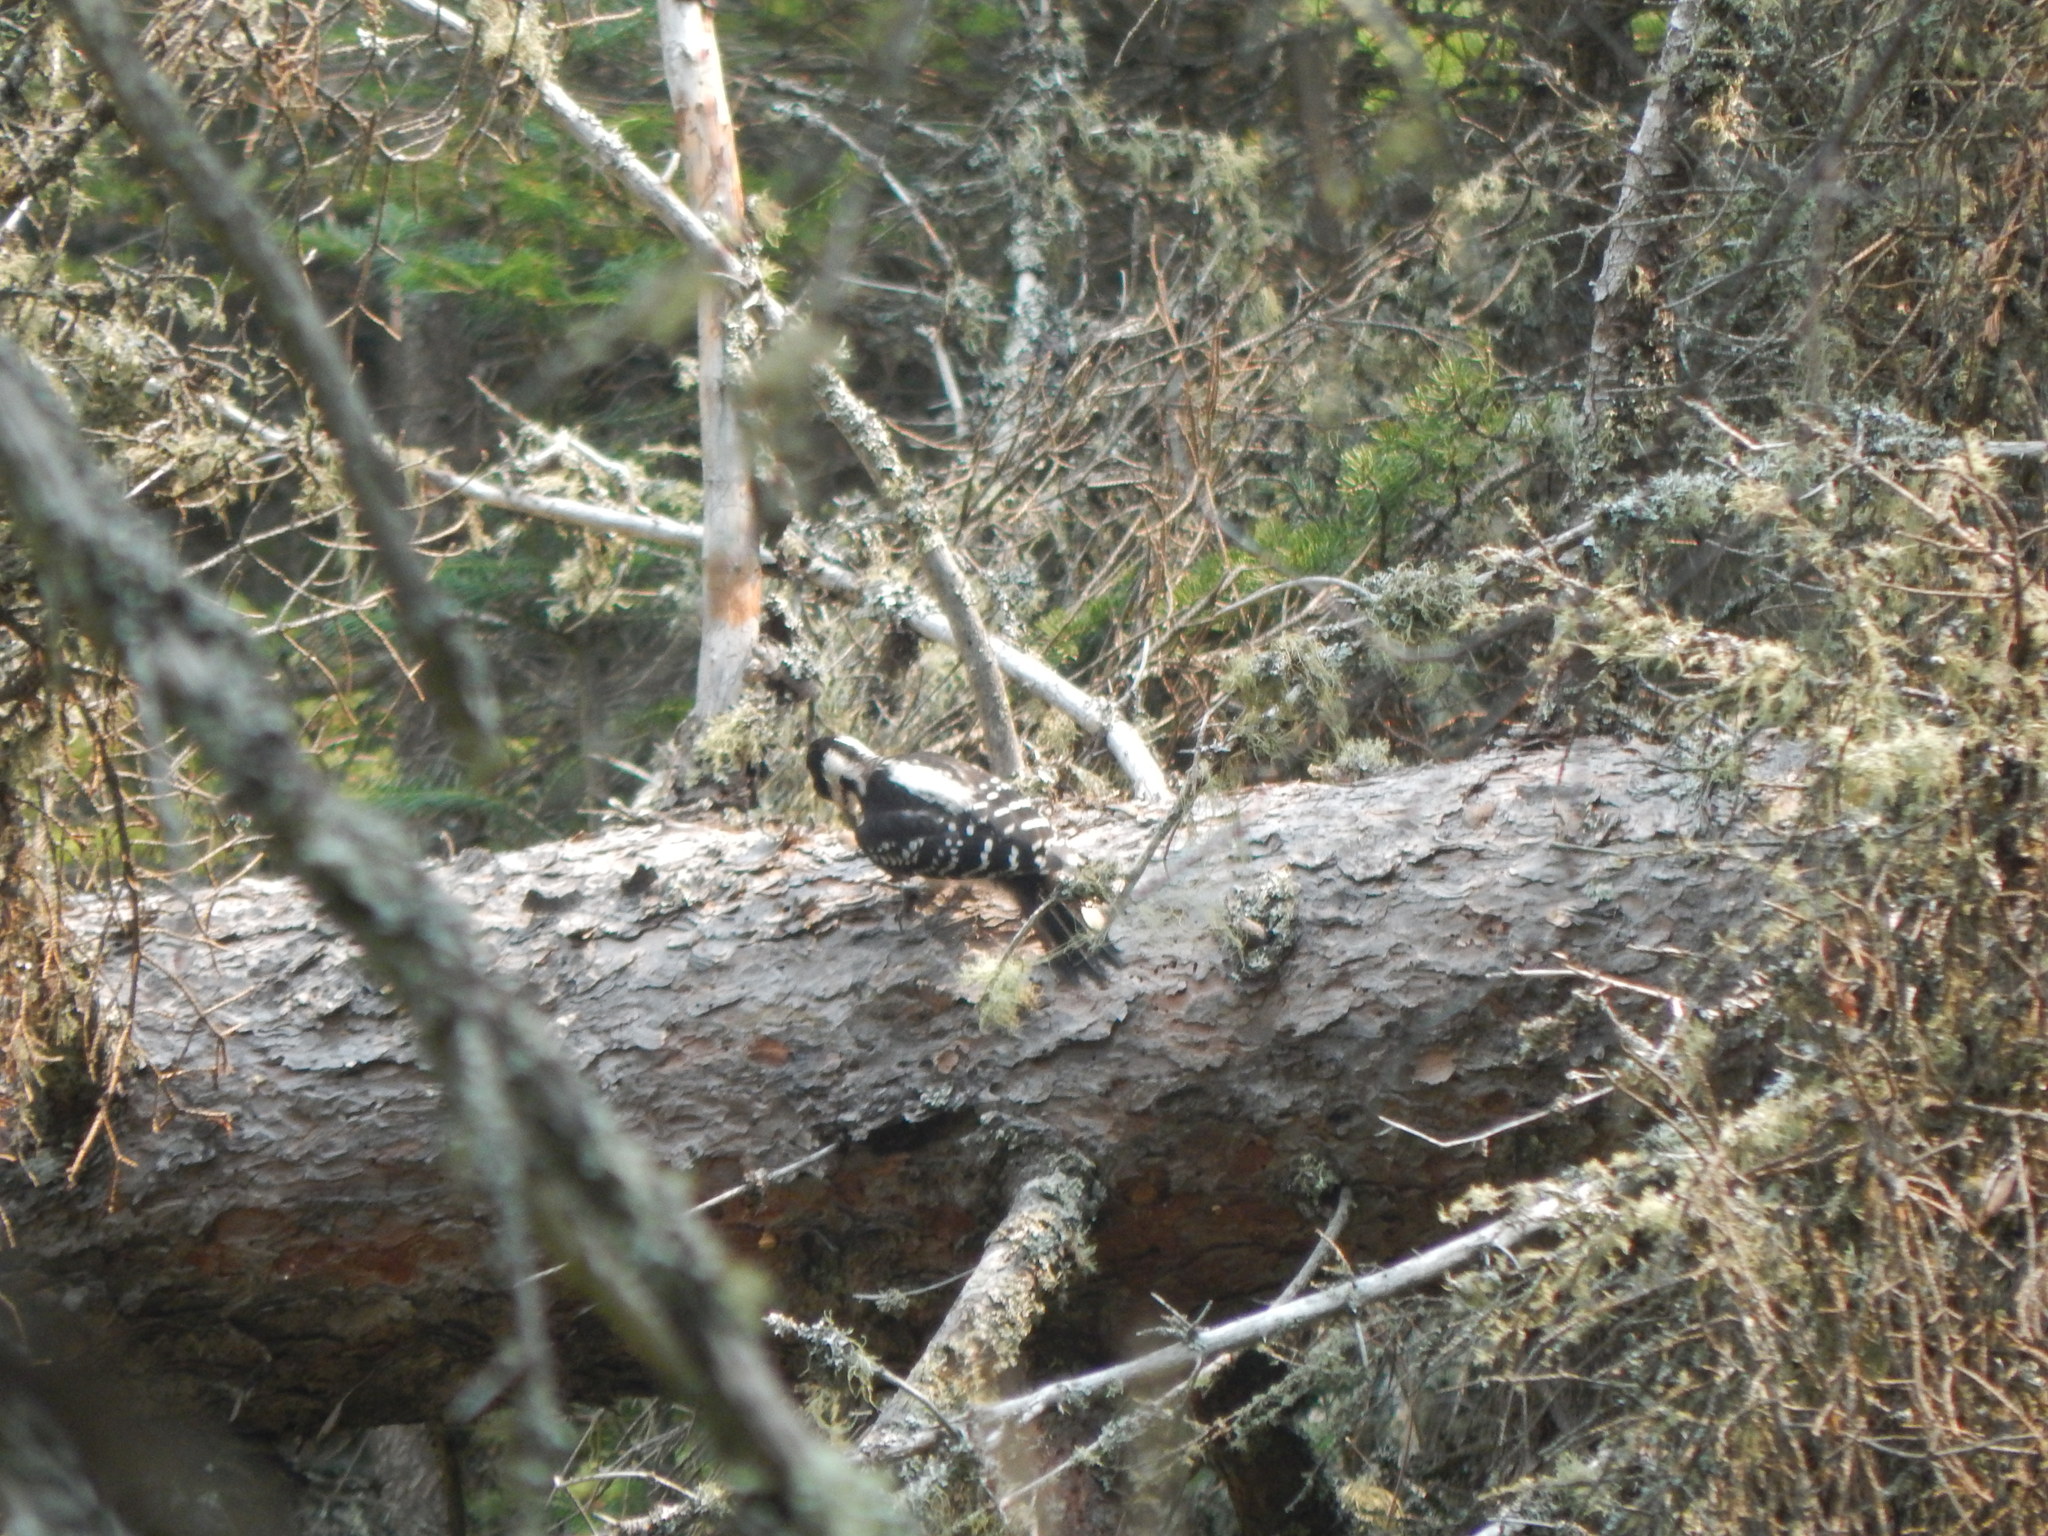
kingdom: Animalia
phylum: Chordata
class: Aves
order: Piciformes
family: Picidae
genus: Leuconotopicus
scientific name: Leuconotopicus villosus
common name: Hairy woodpecker
